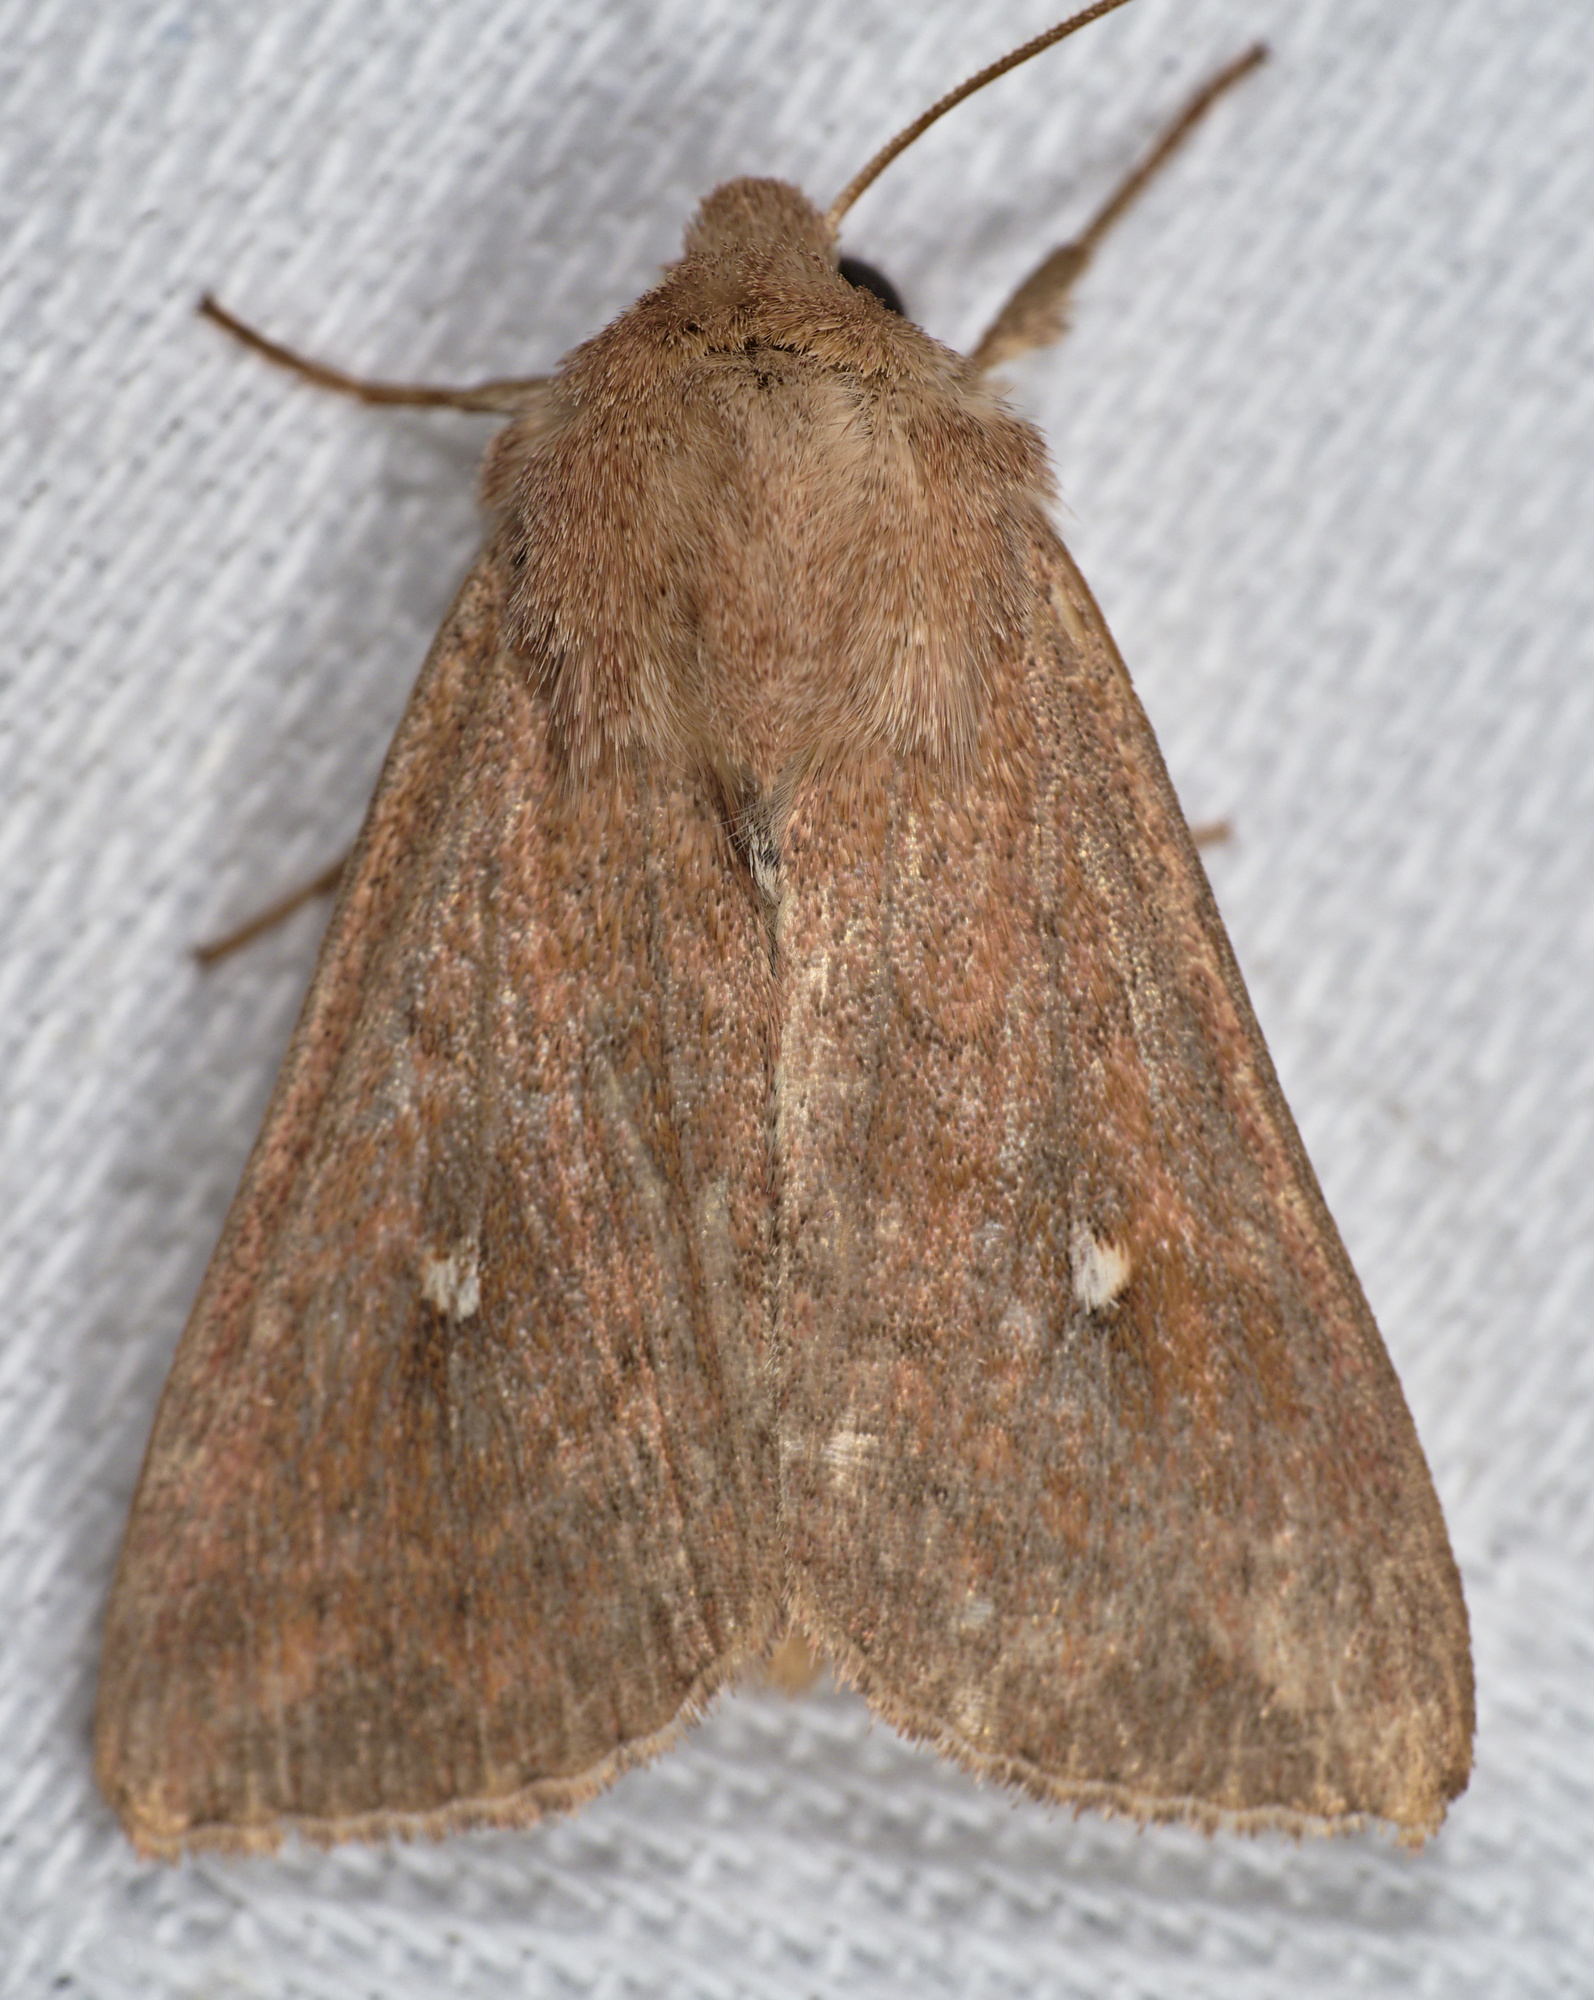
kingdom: Animalia
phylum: Arthropoda
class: Insecta
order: Lepidoptera
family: Noctuidae
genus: Mythimna
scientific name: Mythimna albipuncta
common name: White-point
